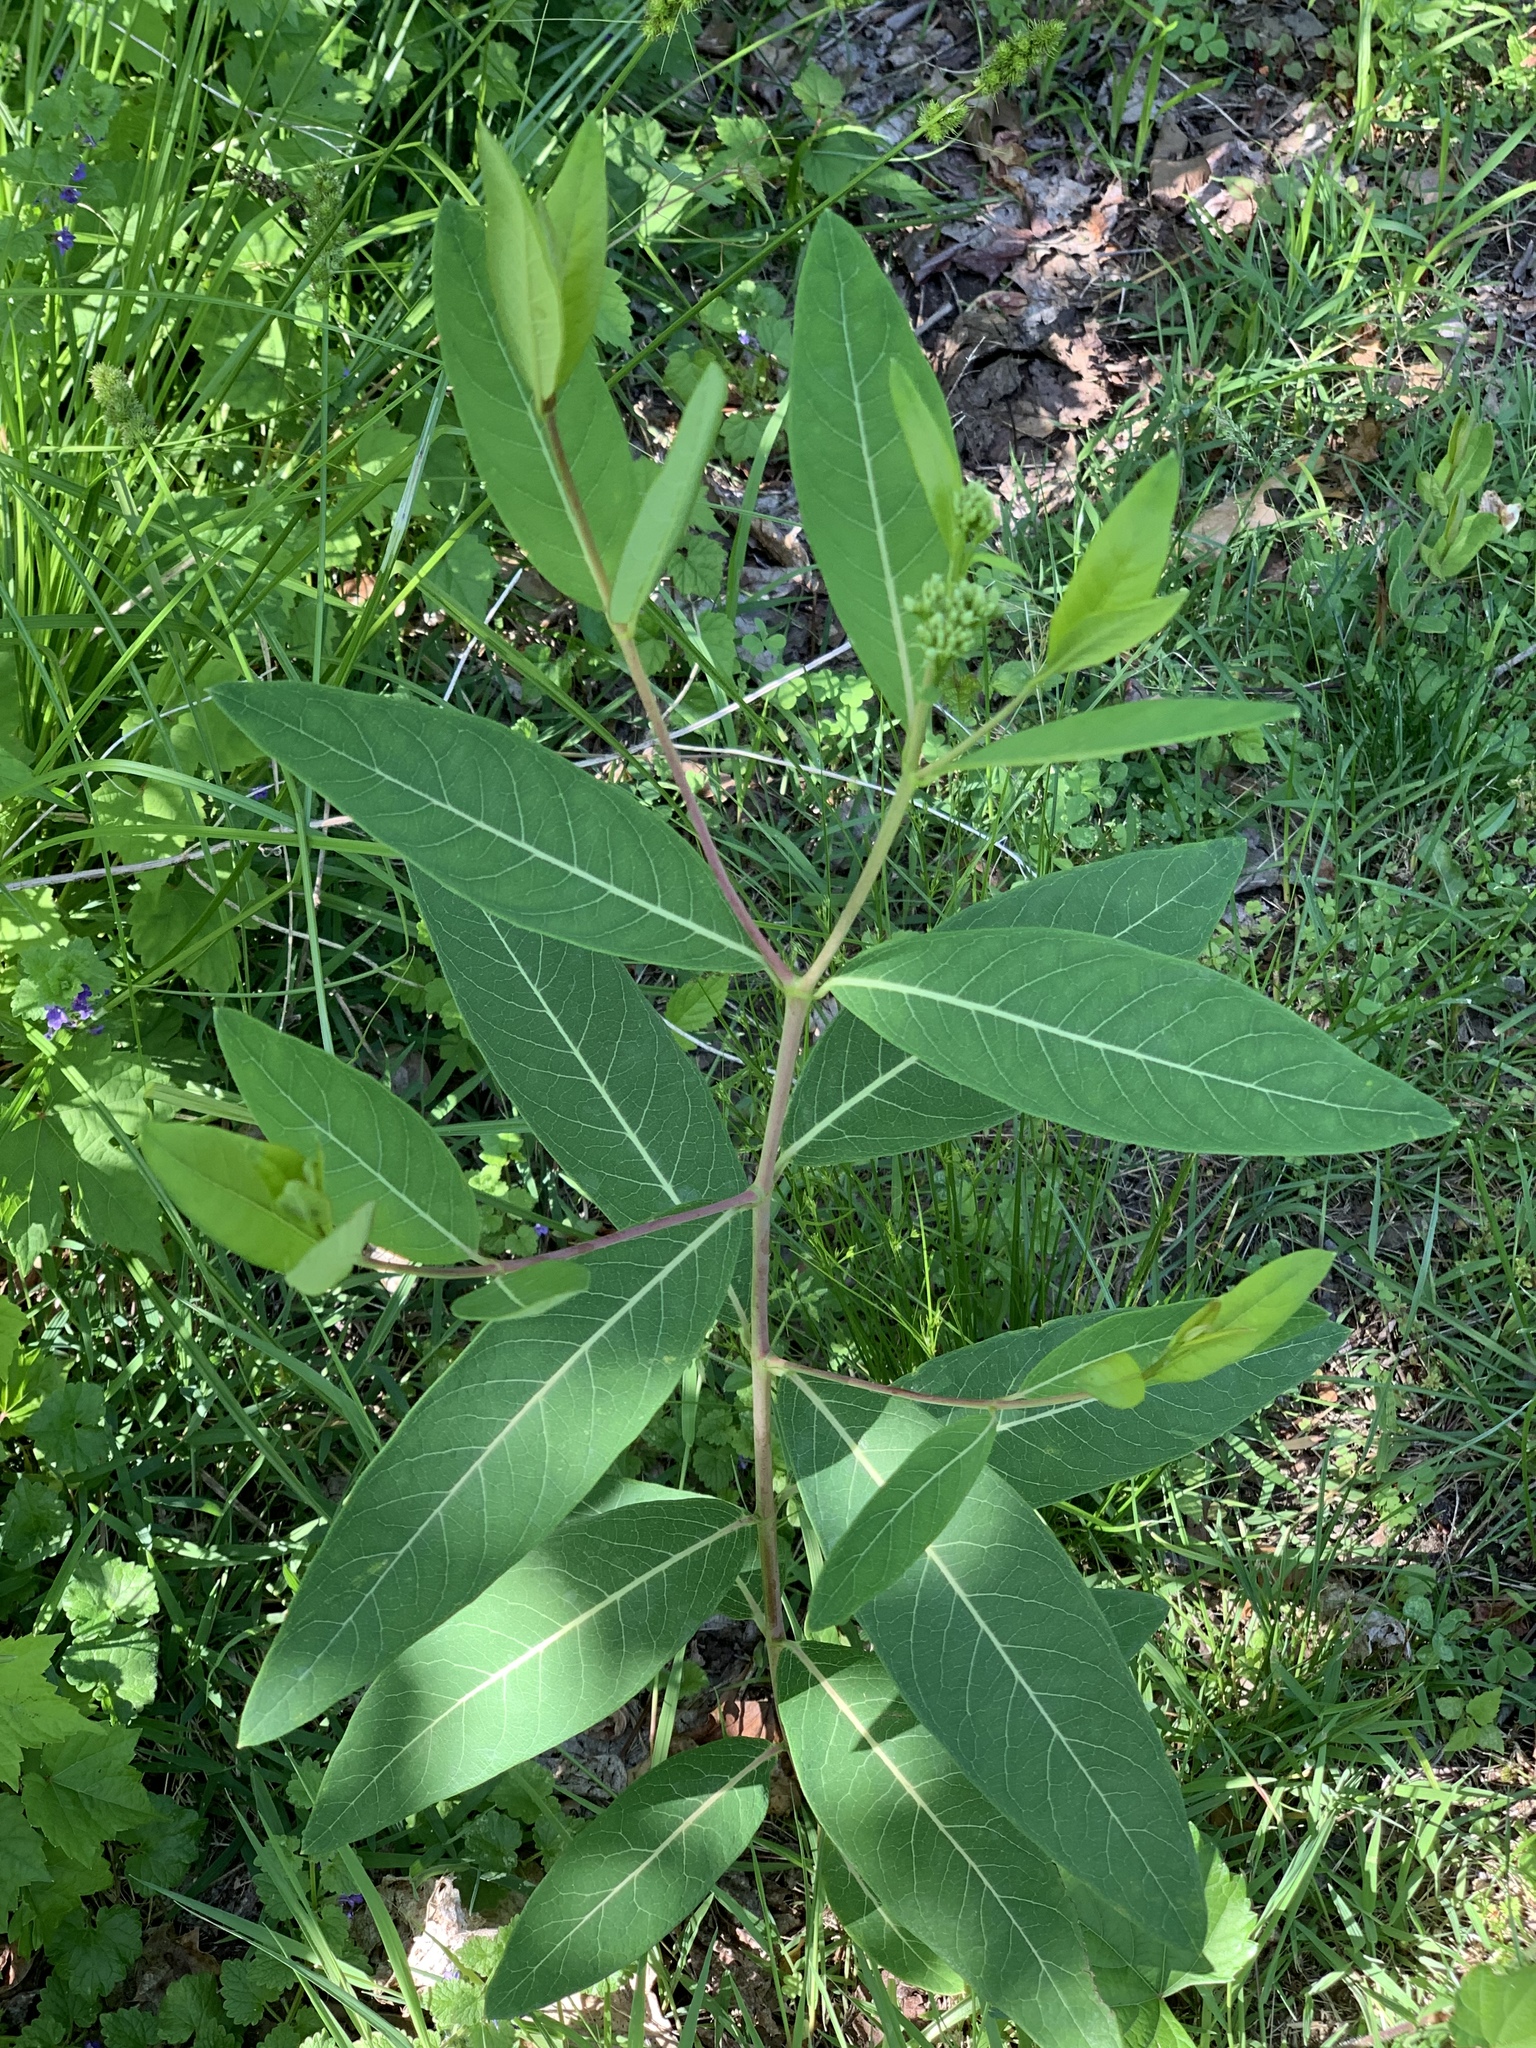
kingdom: Plantae
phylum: Tracheophyta
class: Magnoliopsida
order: Gentianales
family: Apocynaceae
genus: Apocynum
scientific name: Apocynum cannabinum
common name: Hemp dogbane
